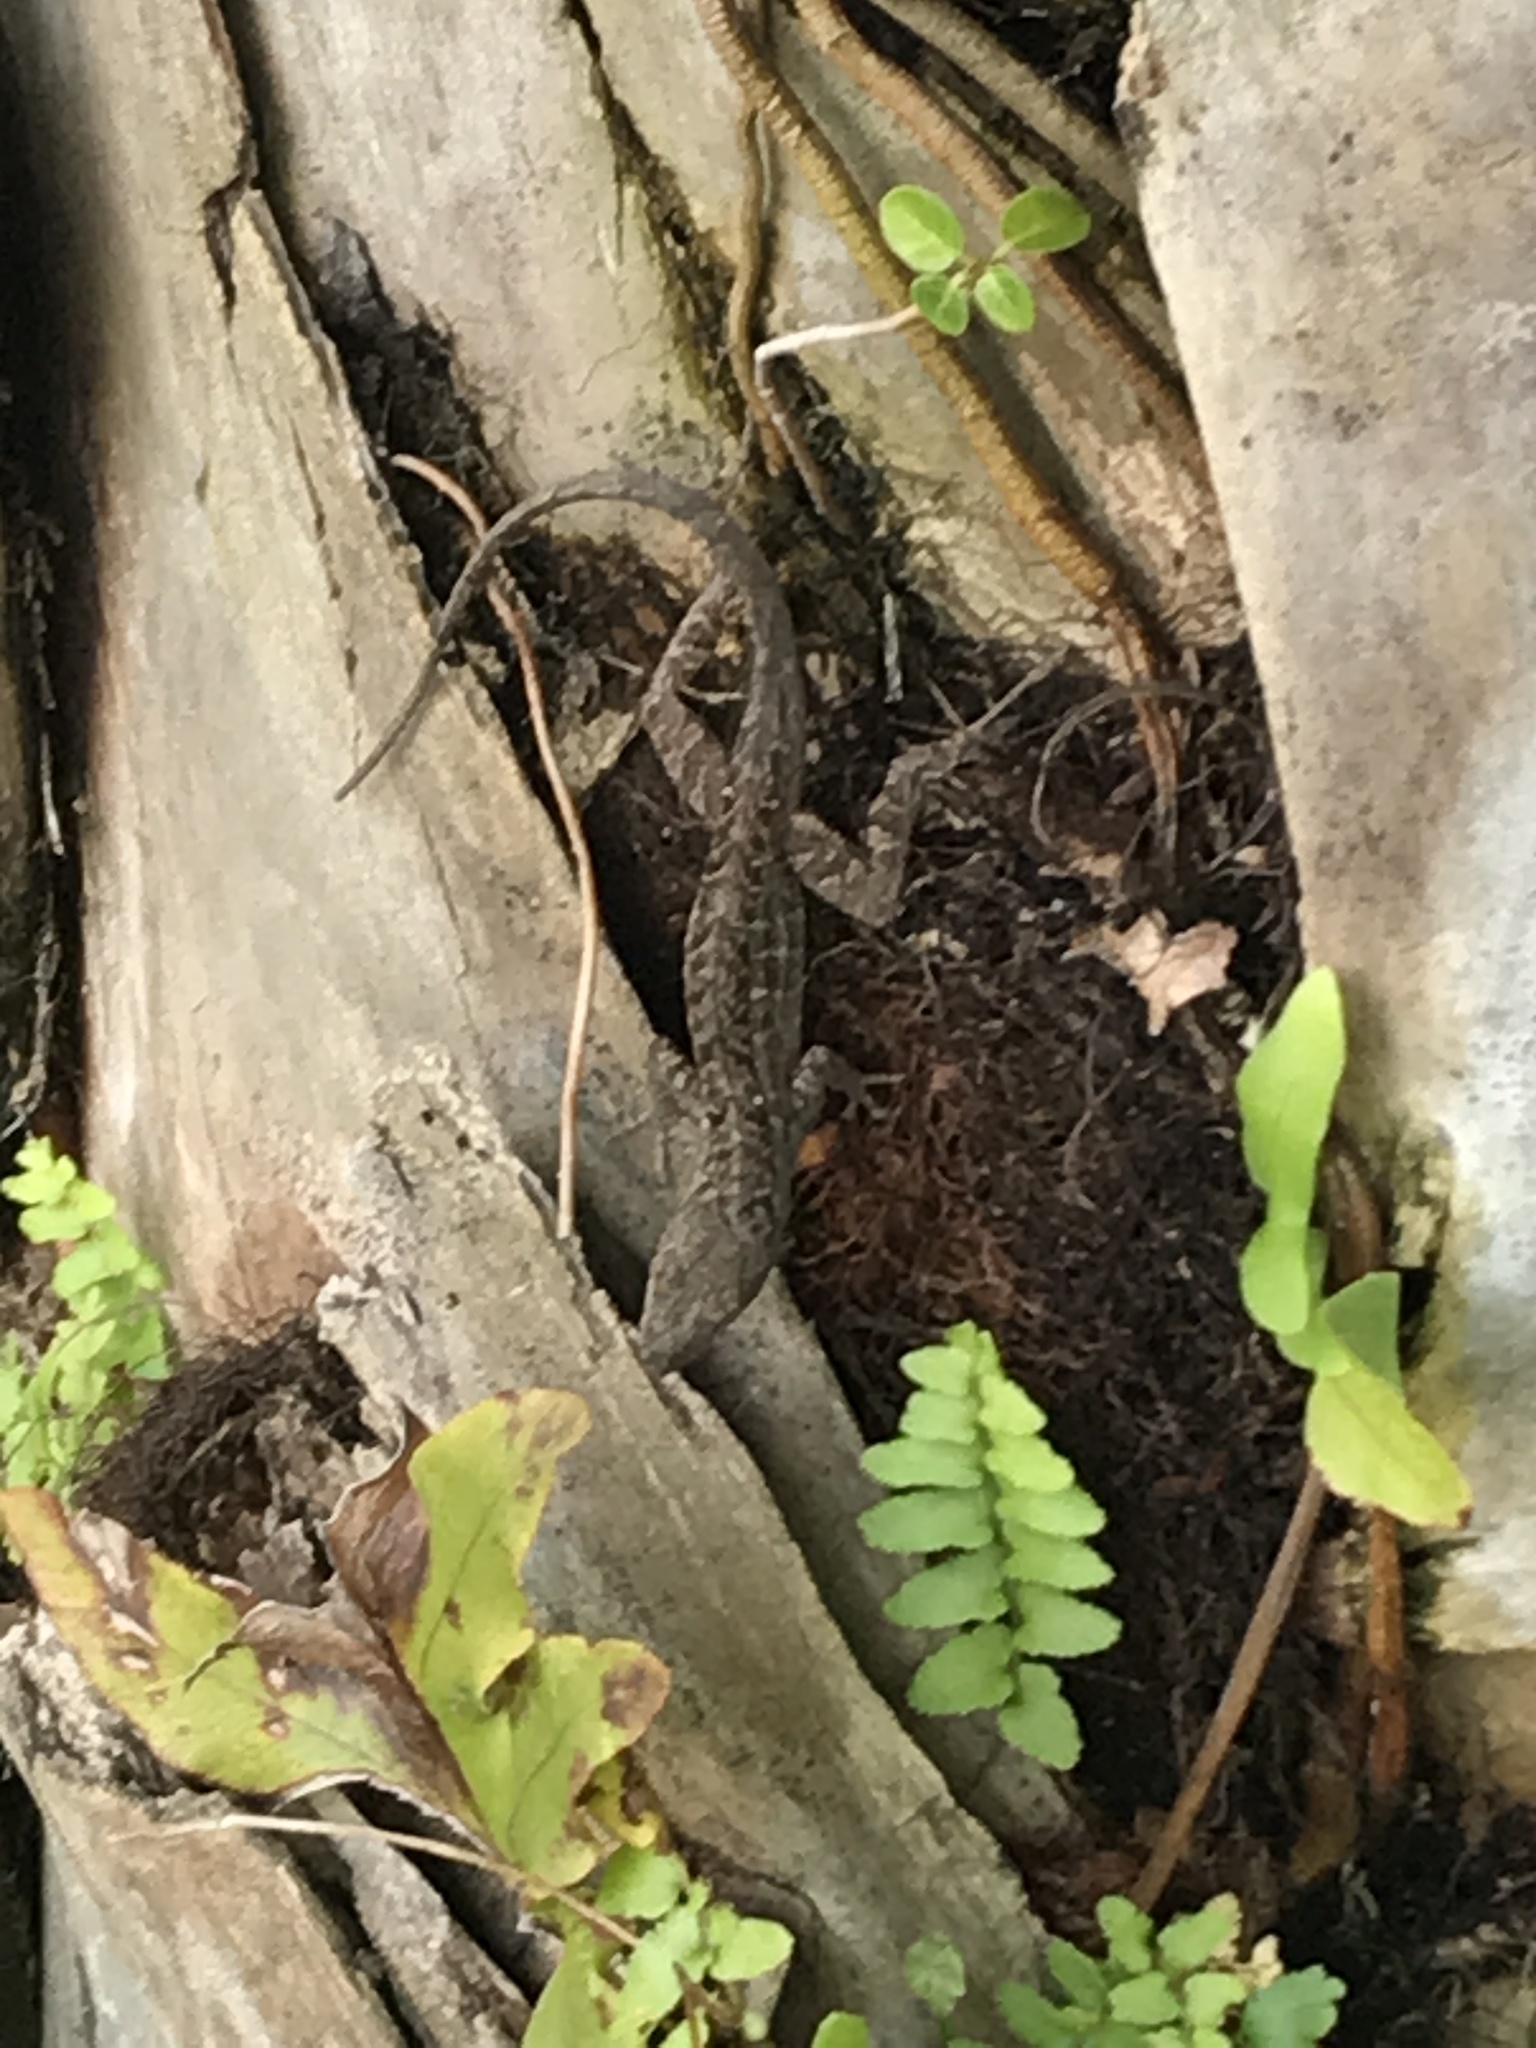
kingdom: Animalia
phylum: Chordata
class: Squamata
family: Dactyloidae
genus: Anolis
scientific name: Anolis sagrei
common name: Brown anole
